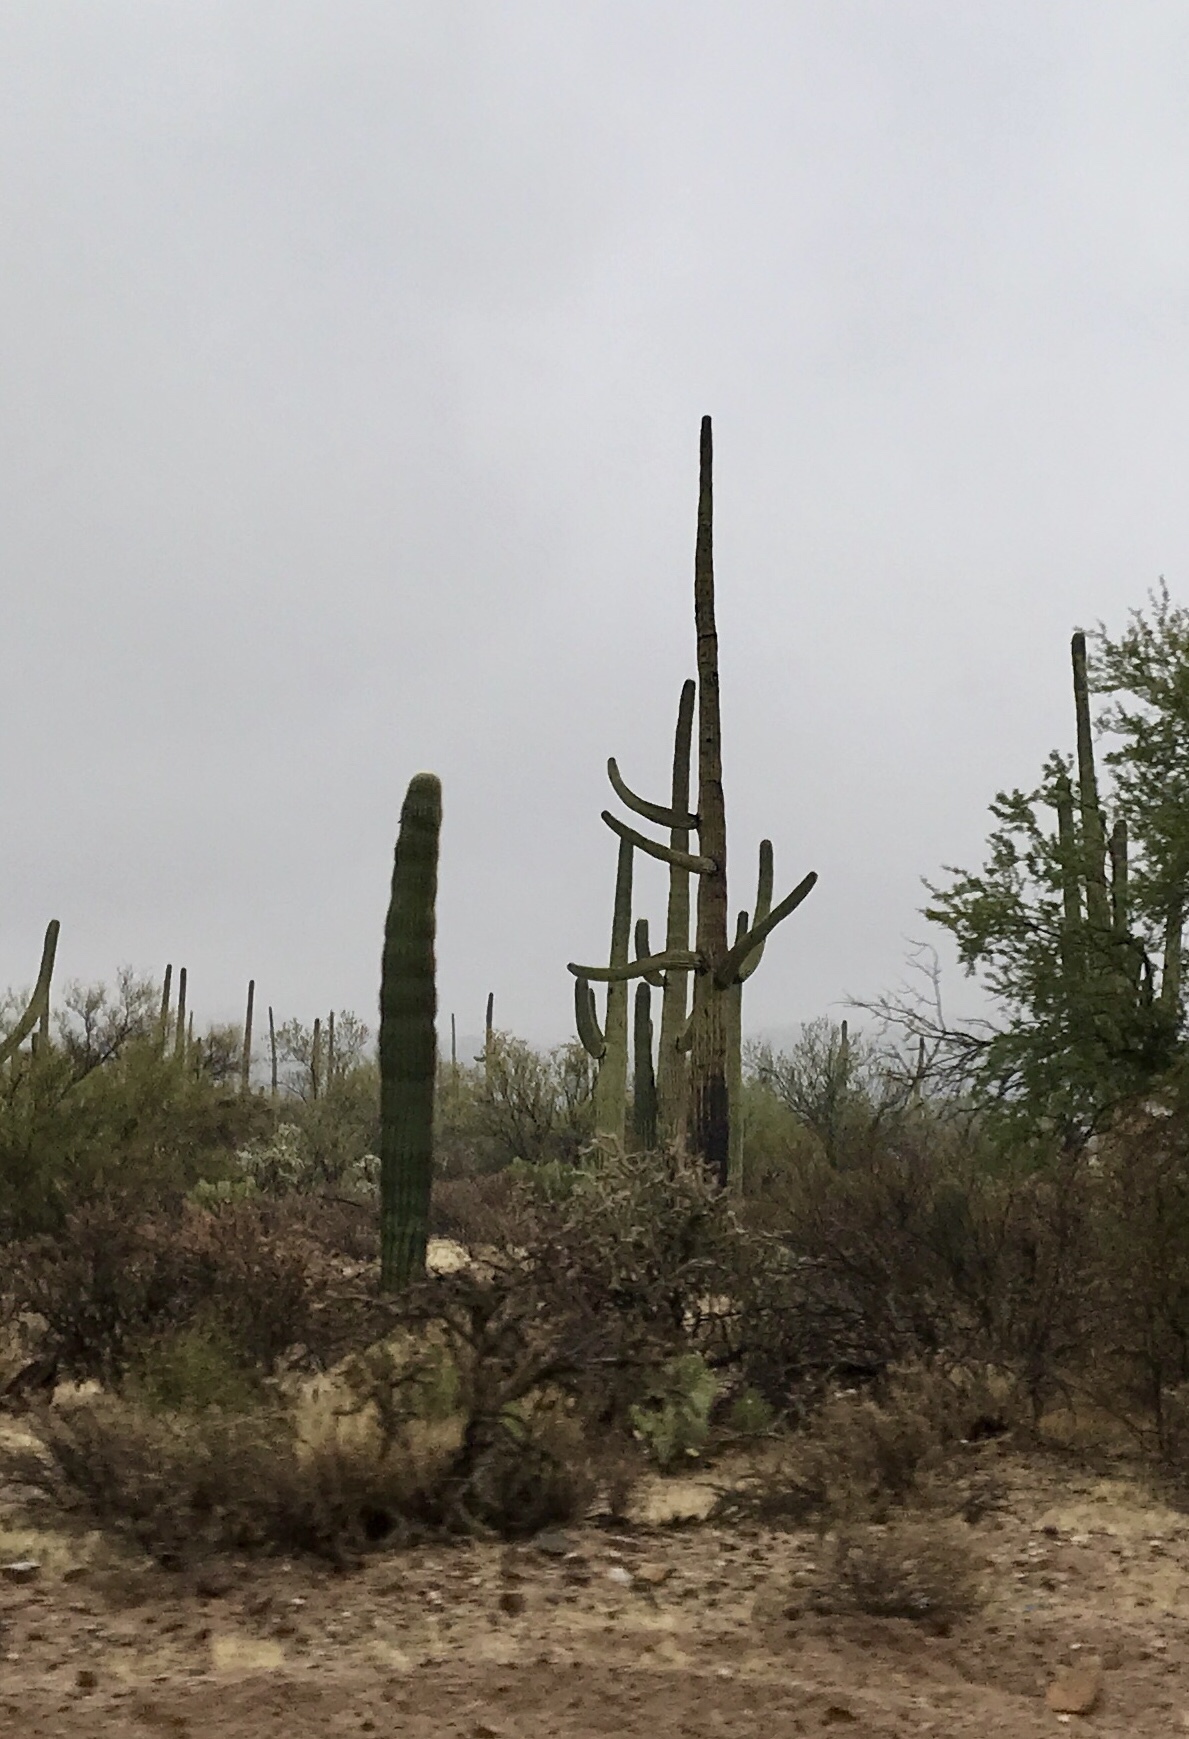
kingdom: Plantae
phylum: Tracheophyta
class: Magnoliopsida
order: Caryophyllales
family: Cactaceae
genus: Carnegiea
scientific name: Carnegiea gigantea
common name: Saguaro
